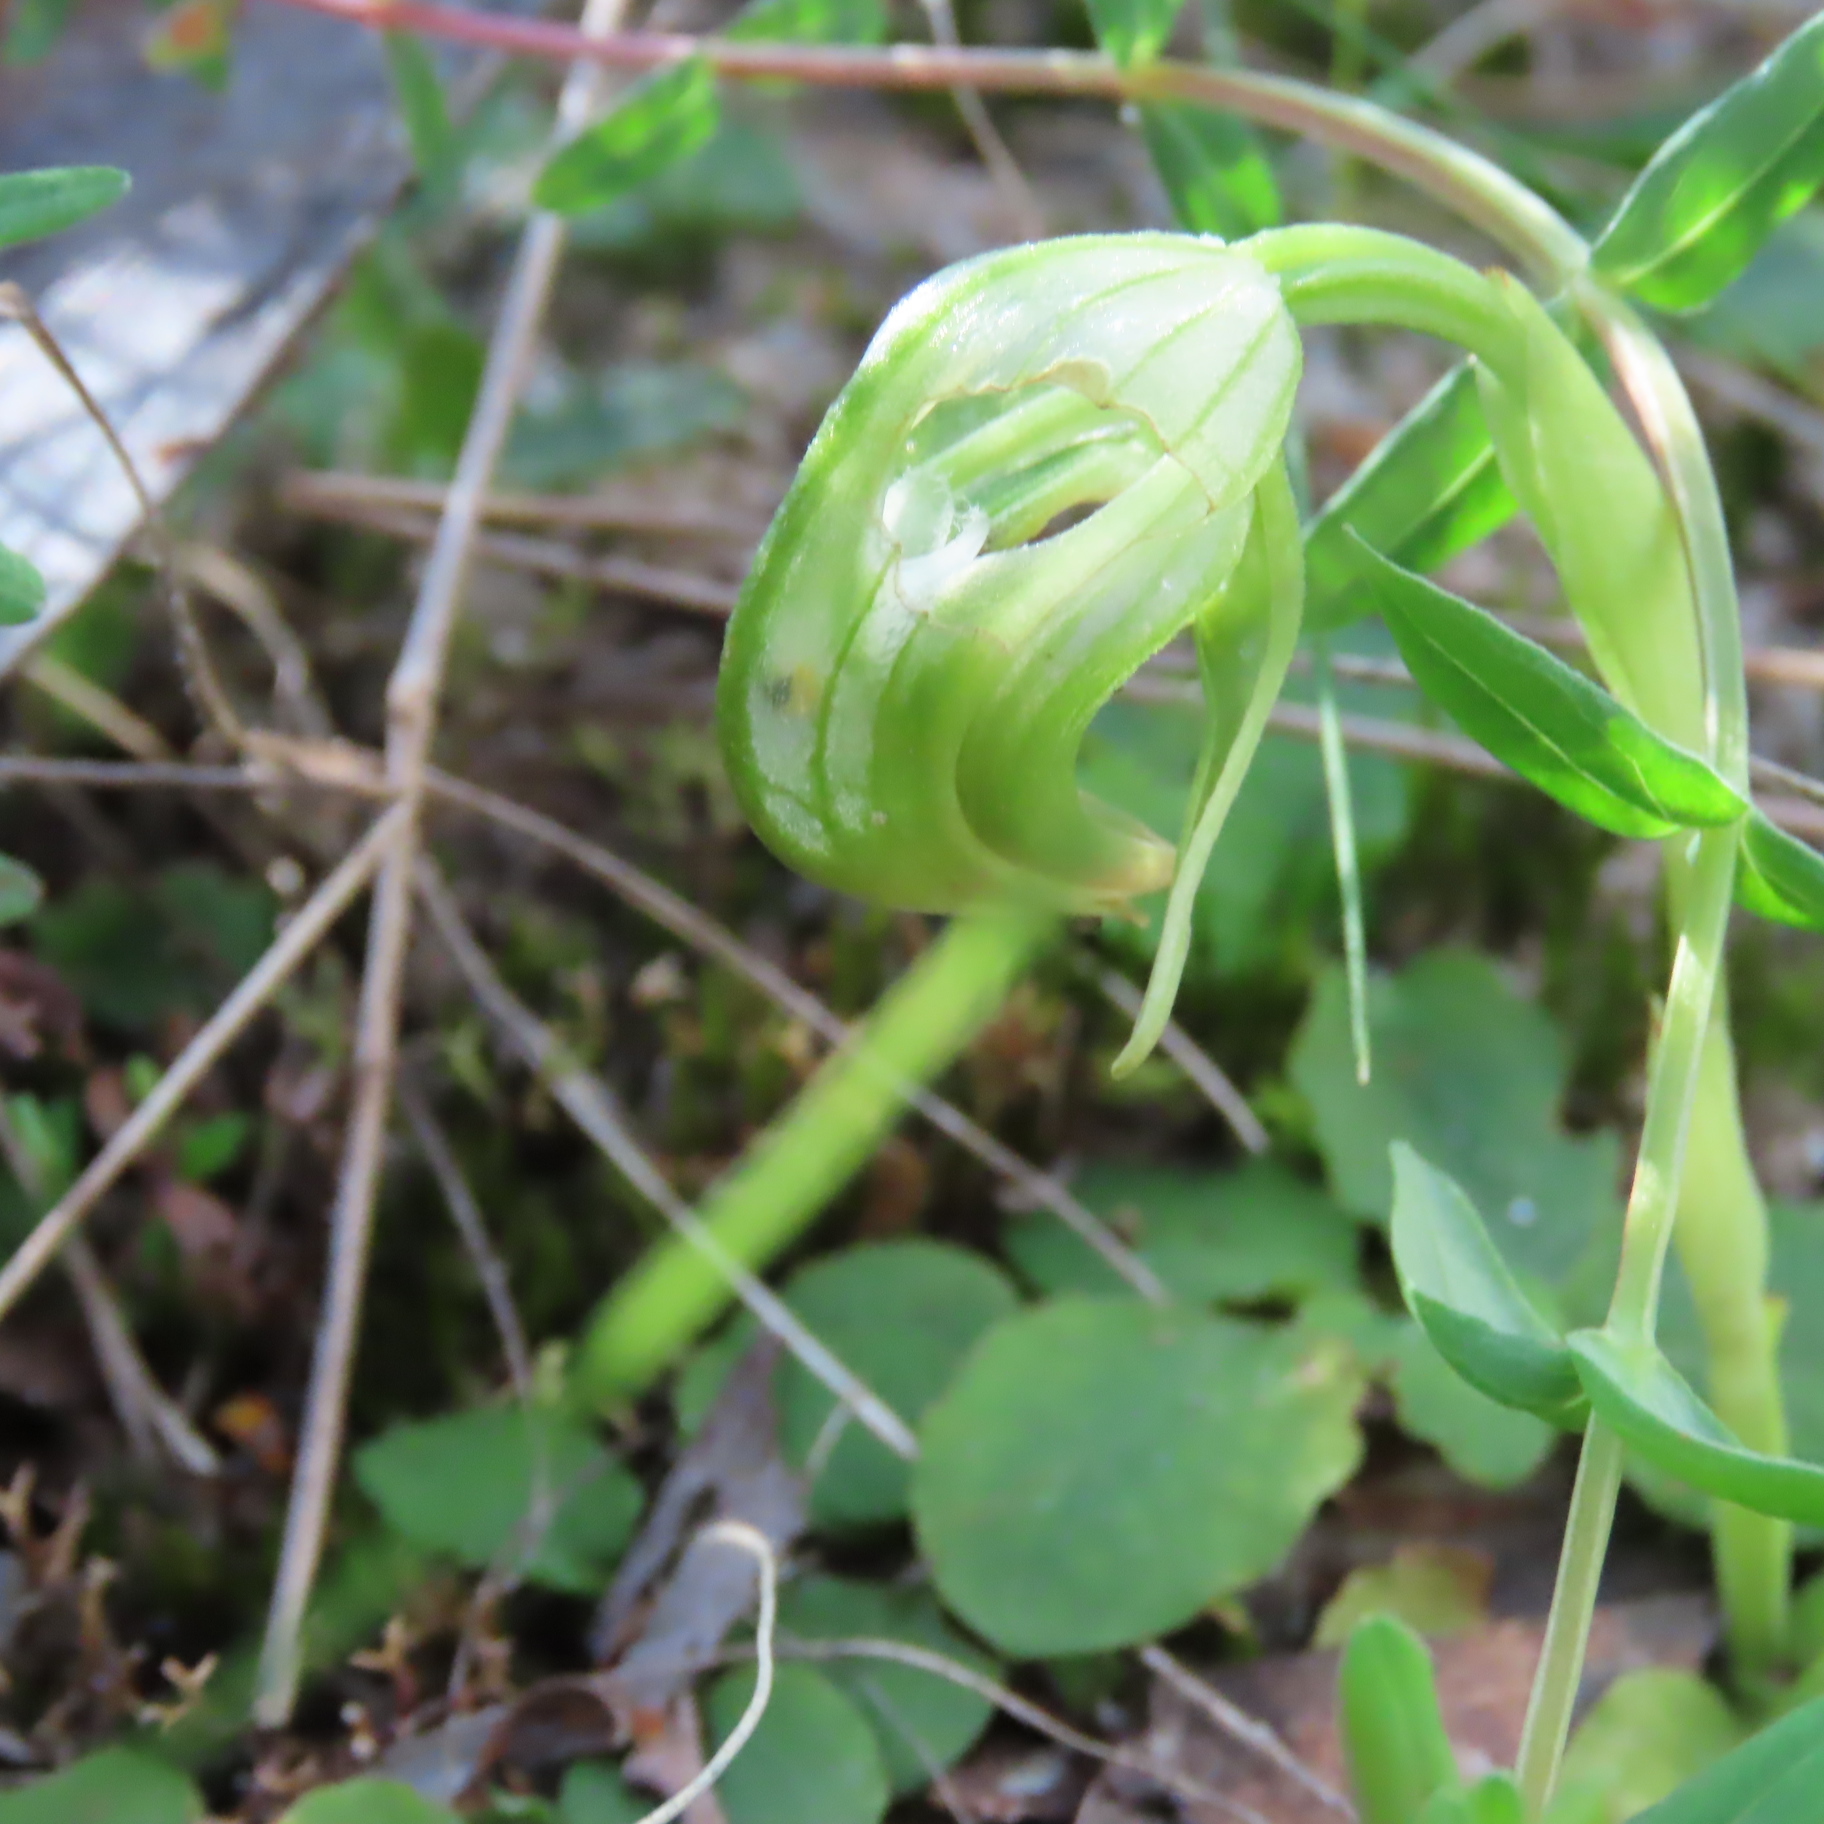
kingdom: Plantae
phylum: Tracheophyta
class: Liliopsida
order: Asparagales
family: Orchidaceae
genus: Pterostylis
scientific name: Pterostylis nutans
